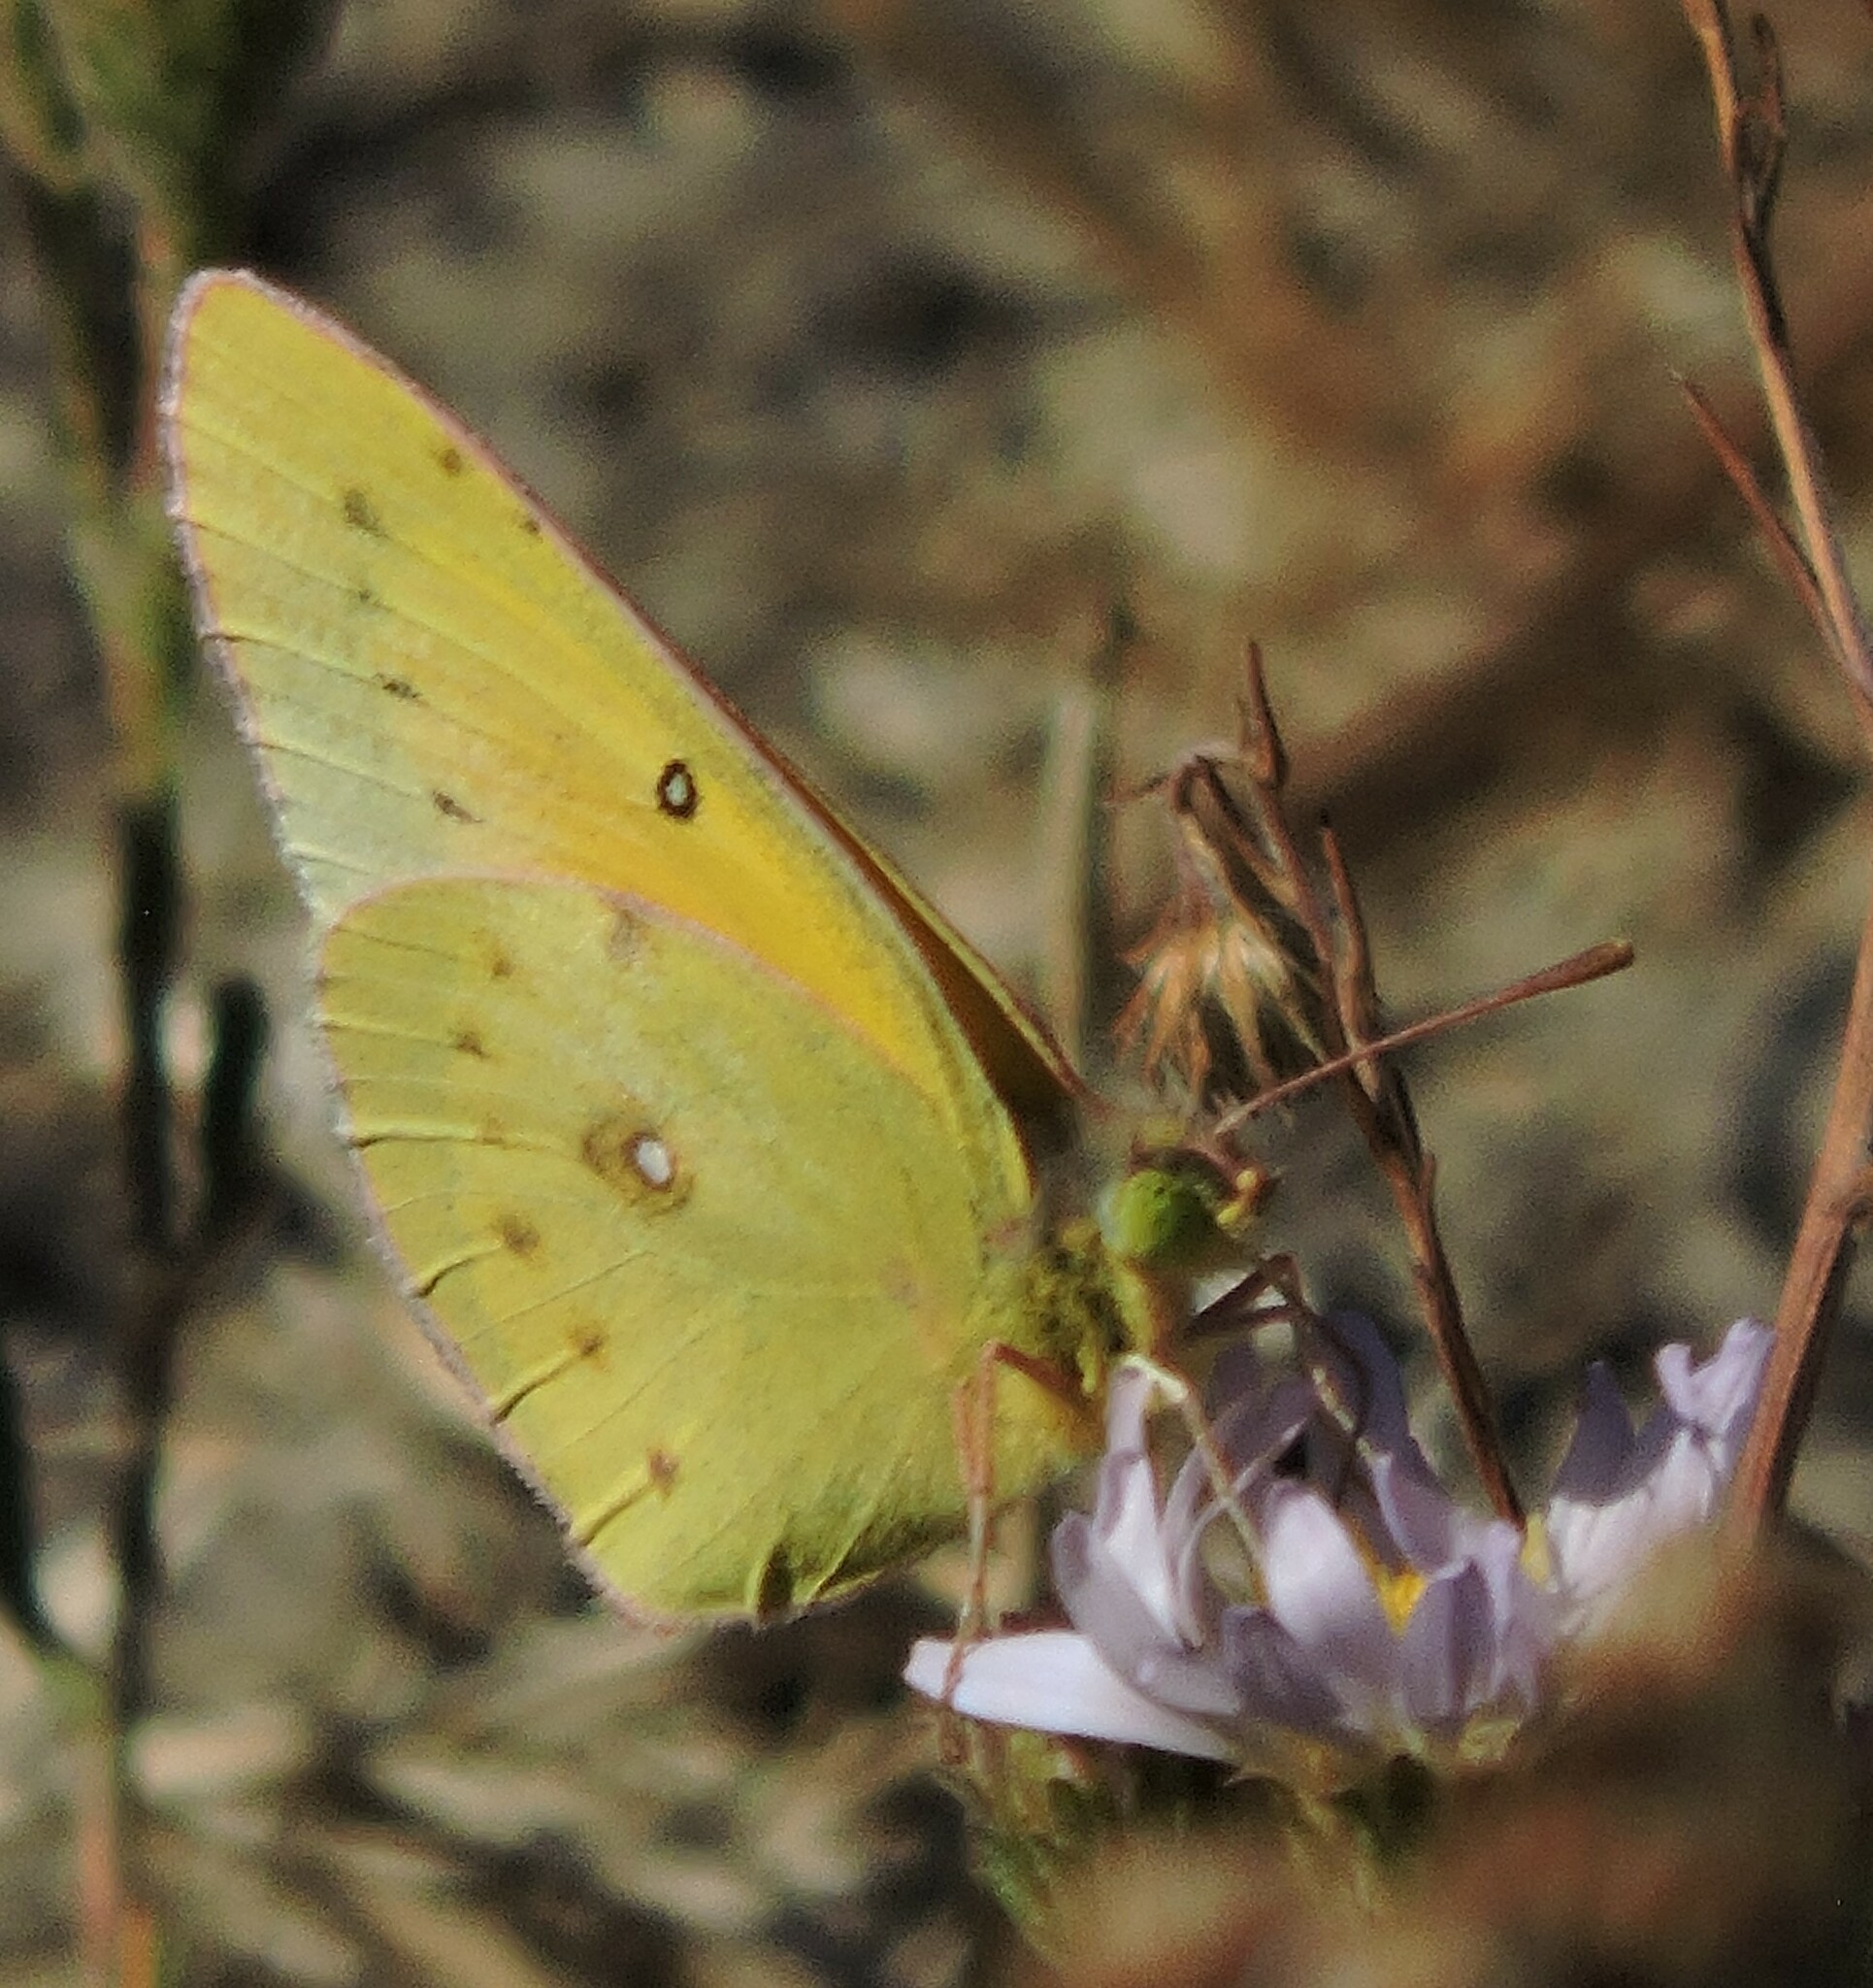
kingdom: Animalia
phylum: Arthropoda
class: Insecta
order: Lepidoptera
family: Pieridae
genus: Colias
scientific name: Colias eurytheme
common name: Alfalfa butterfly
